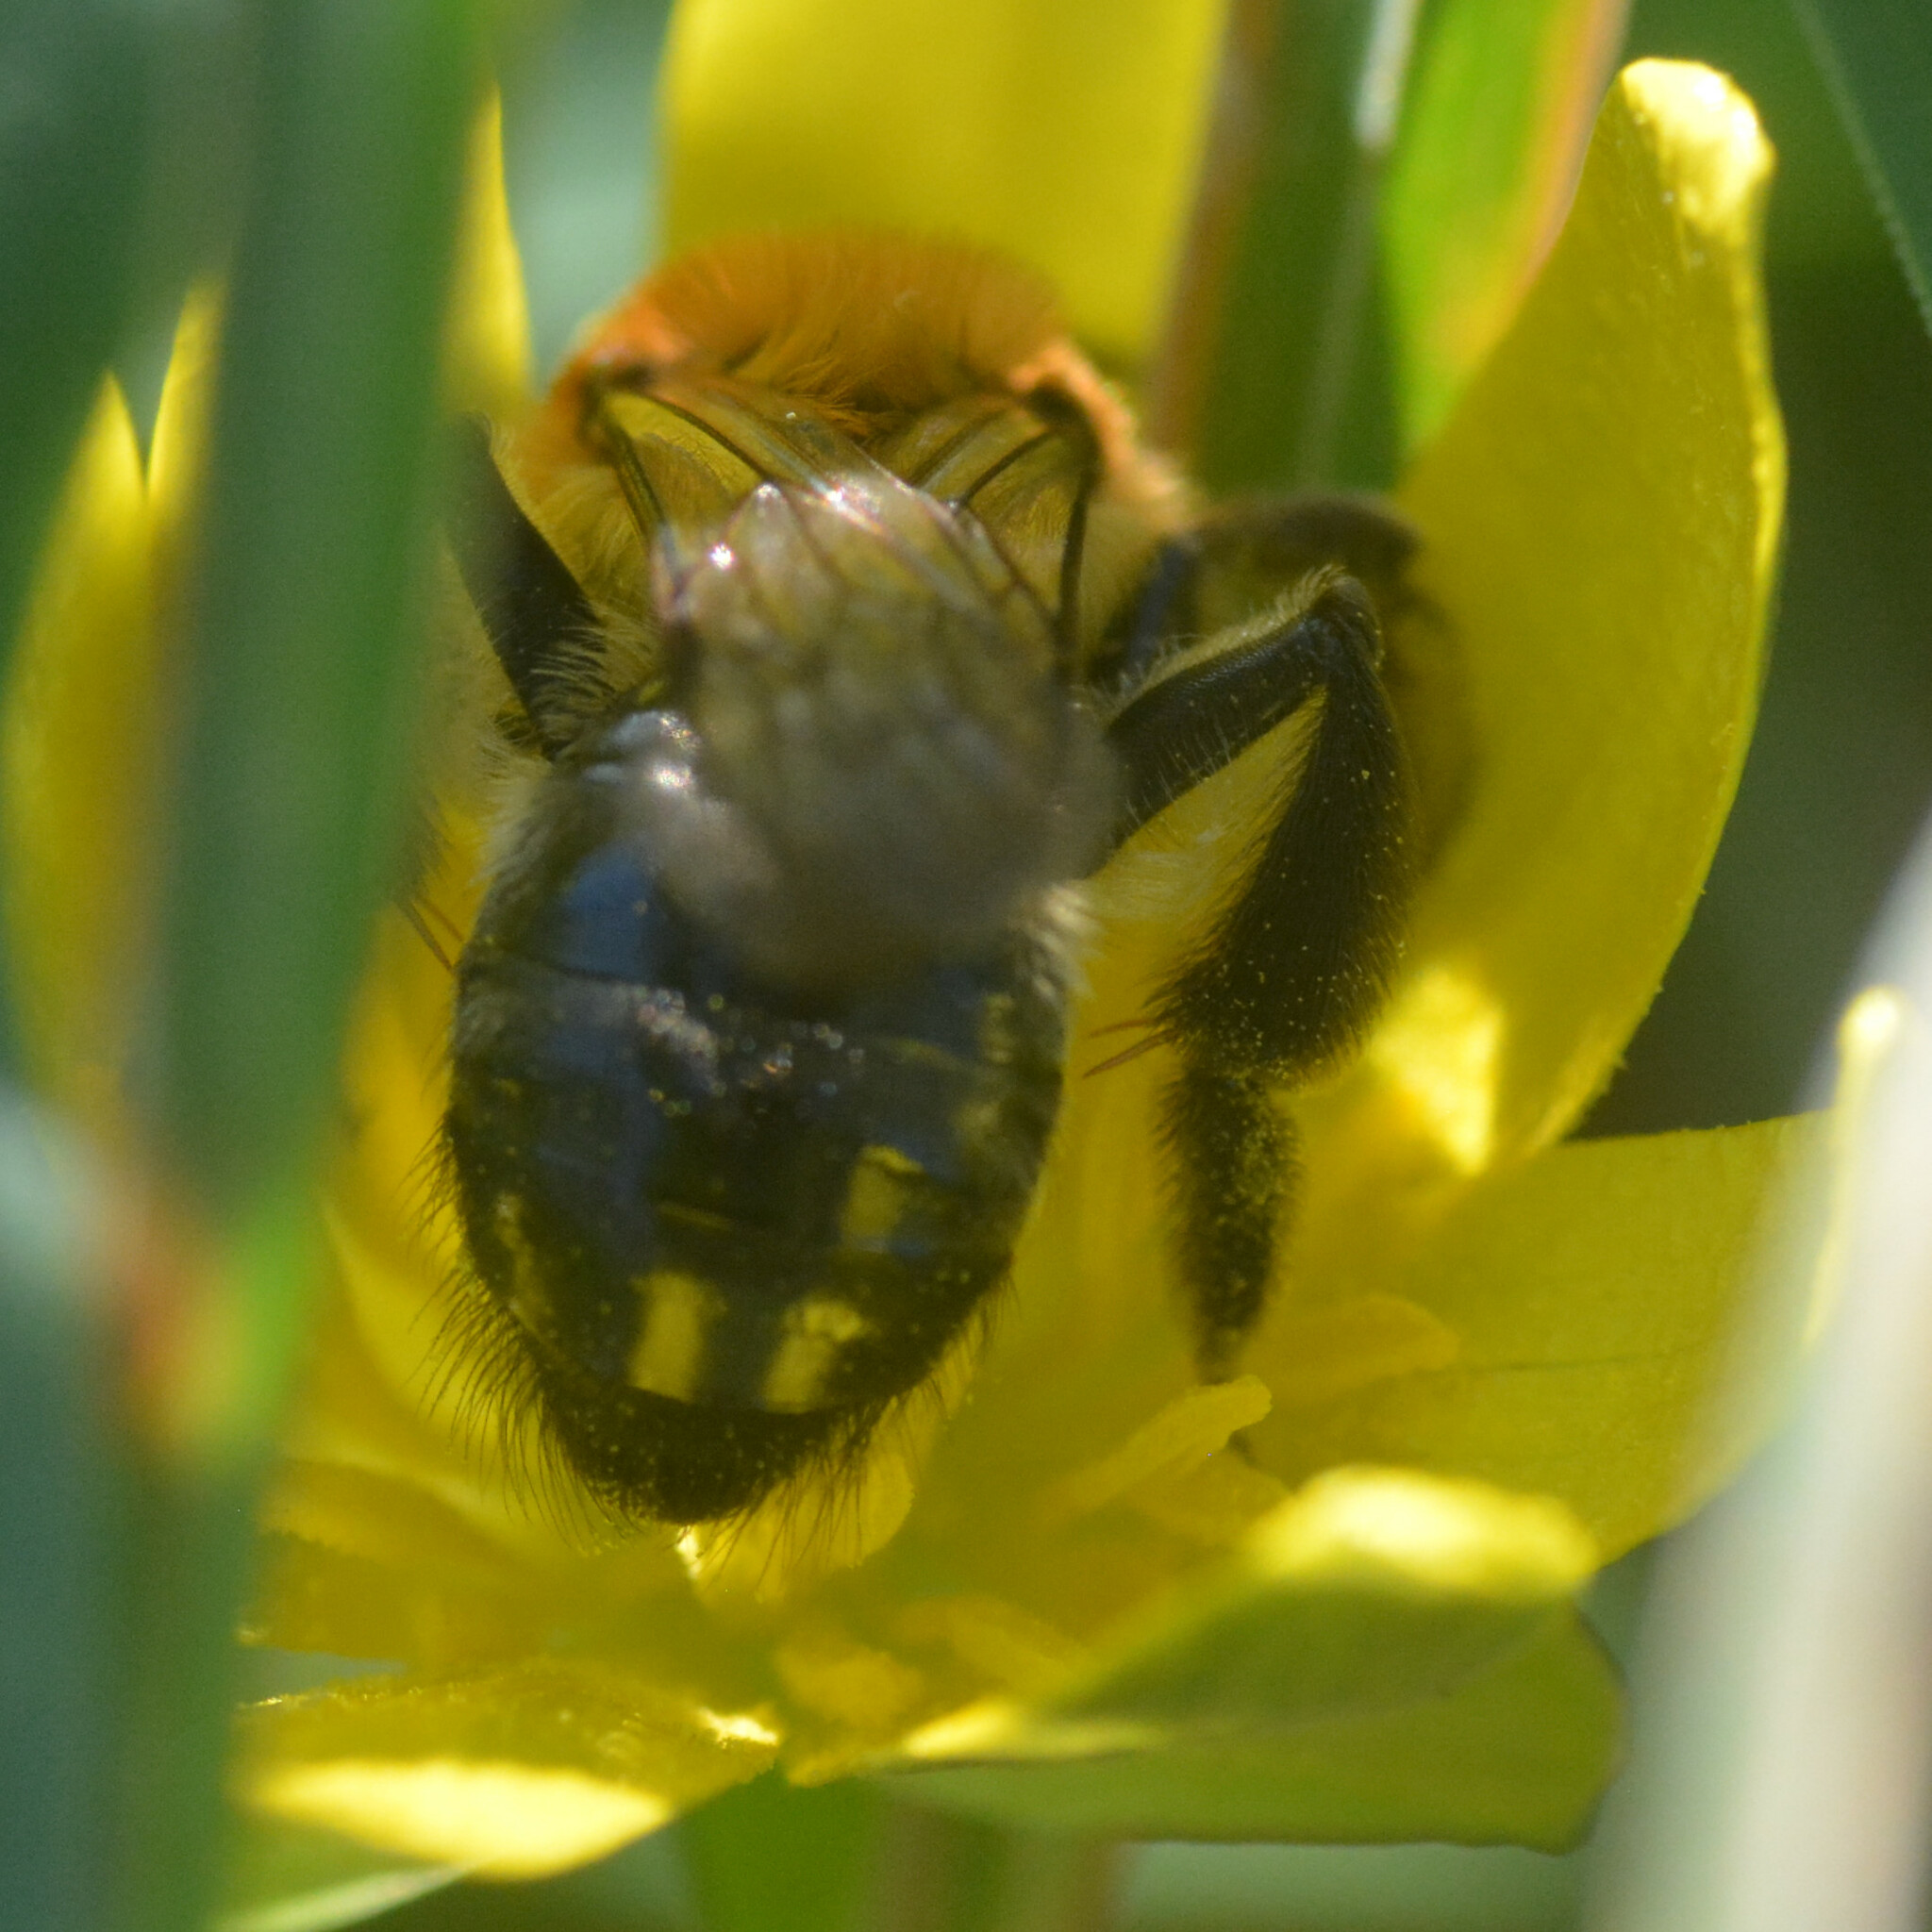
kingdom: Animalia
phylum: Arthropoda
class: Insecta
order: Hymenoptera
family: Andrenidae
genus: Andrena
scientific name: Andrena nitida
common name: Grey-patched mining bee
